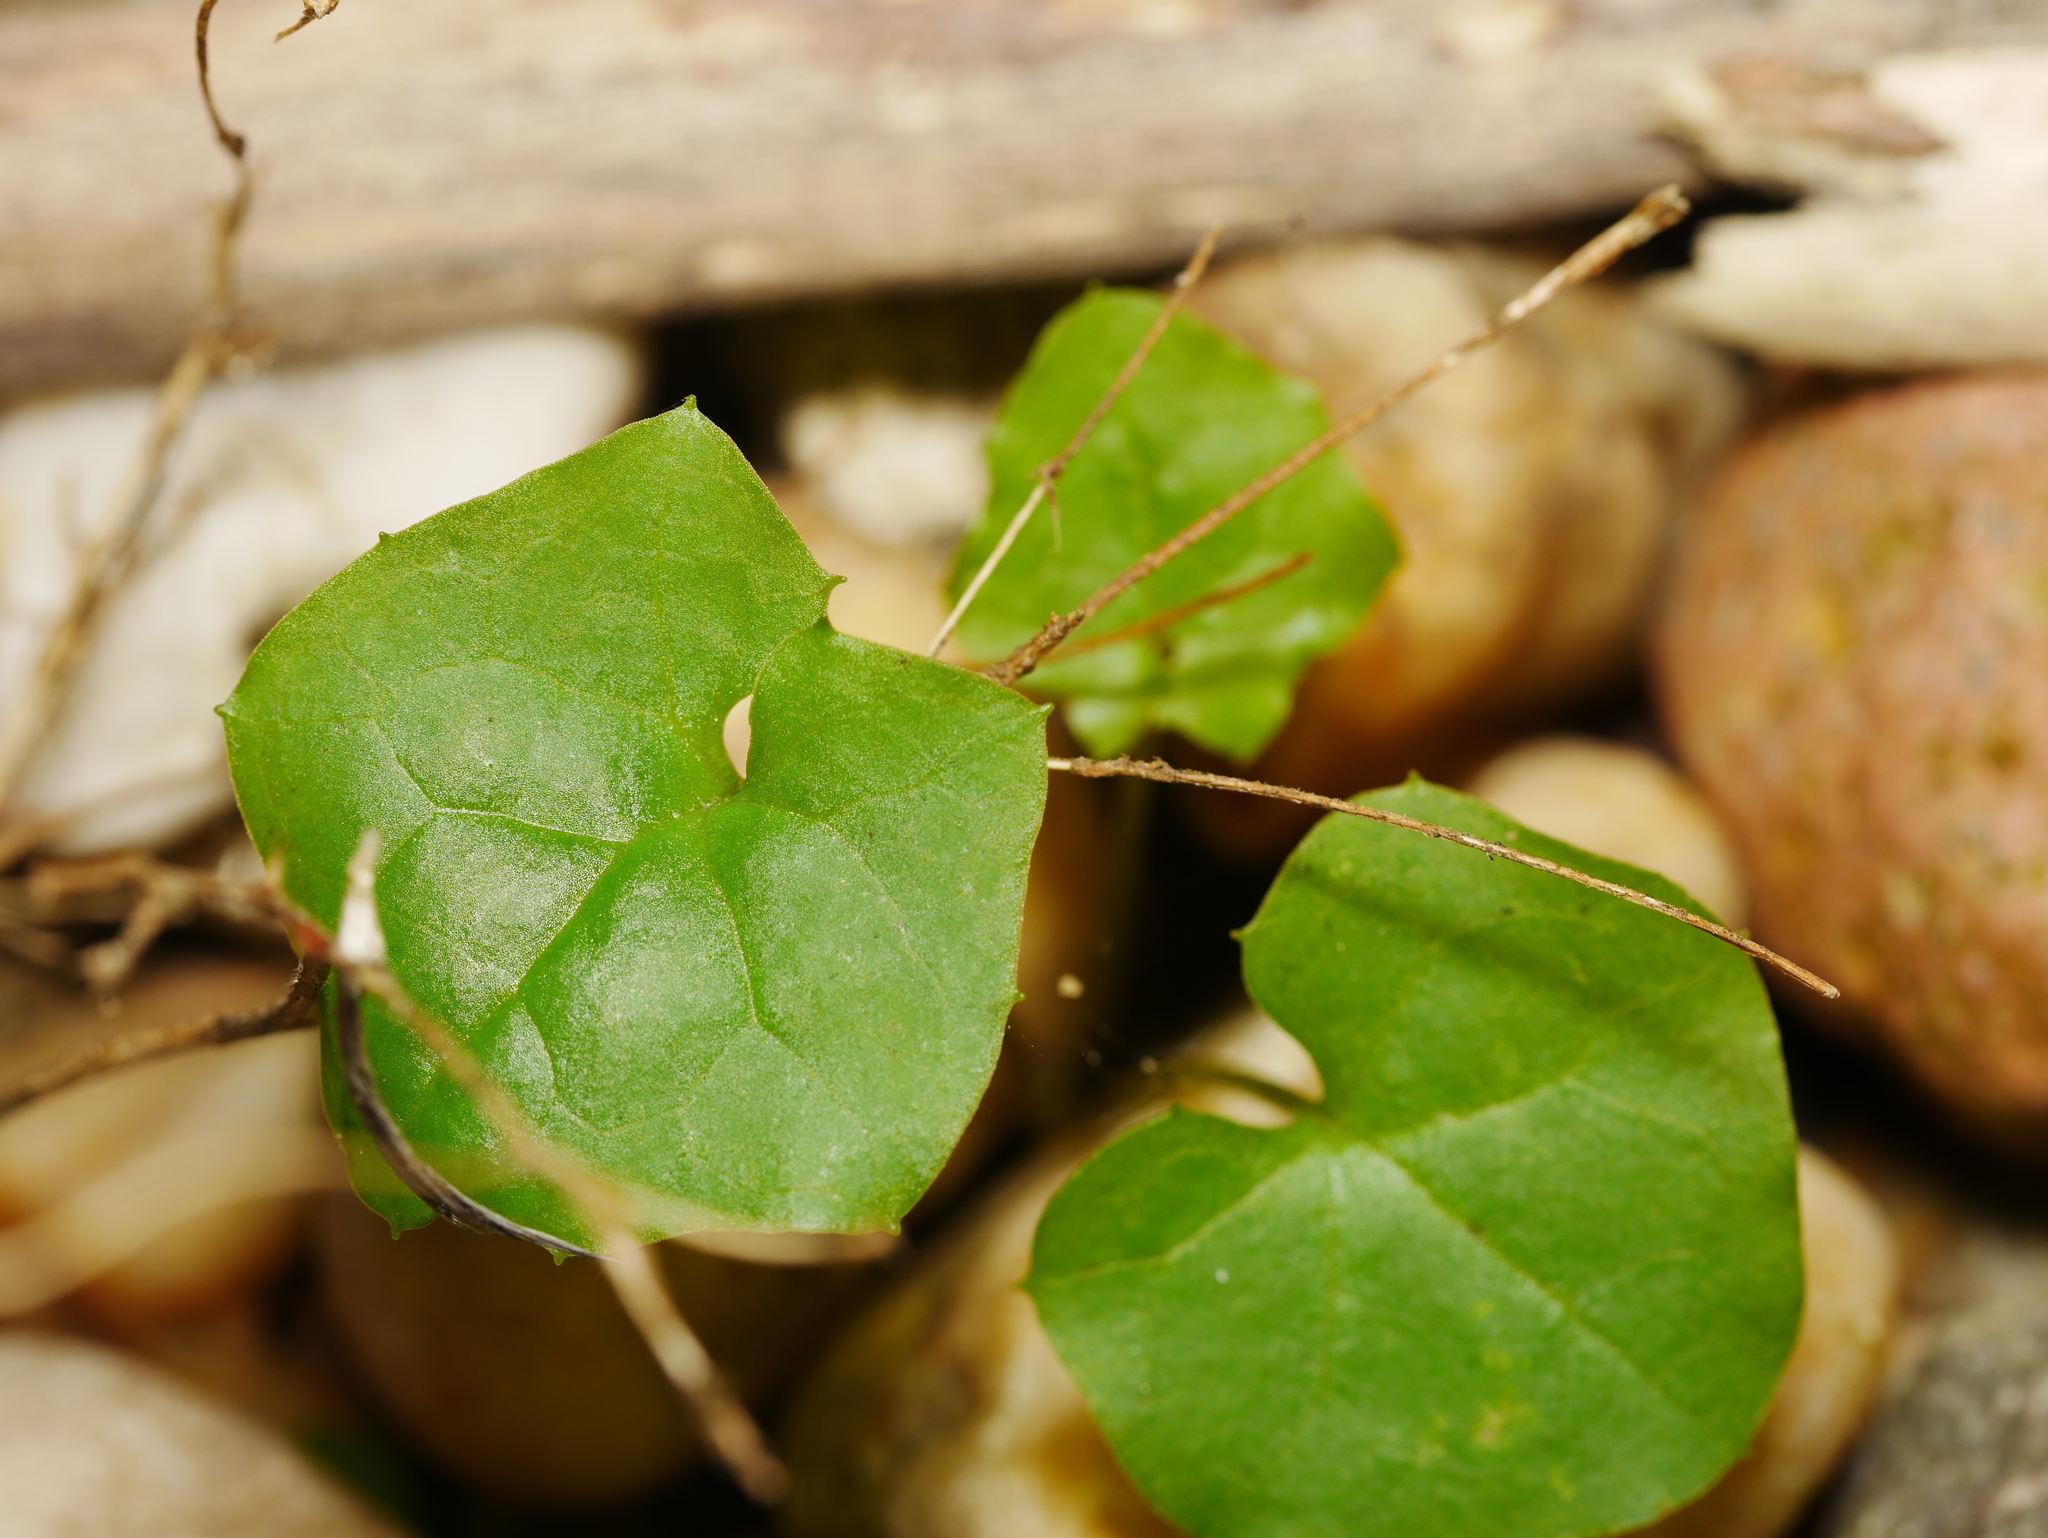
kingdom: Plantae
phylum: Tracheophyta
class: Magnoliopsida
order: Asterales
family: Asteraceae
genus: Mycelis
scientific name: Mycelis muralis
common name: Wall lettuce
